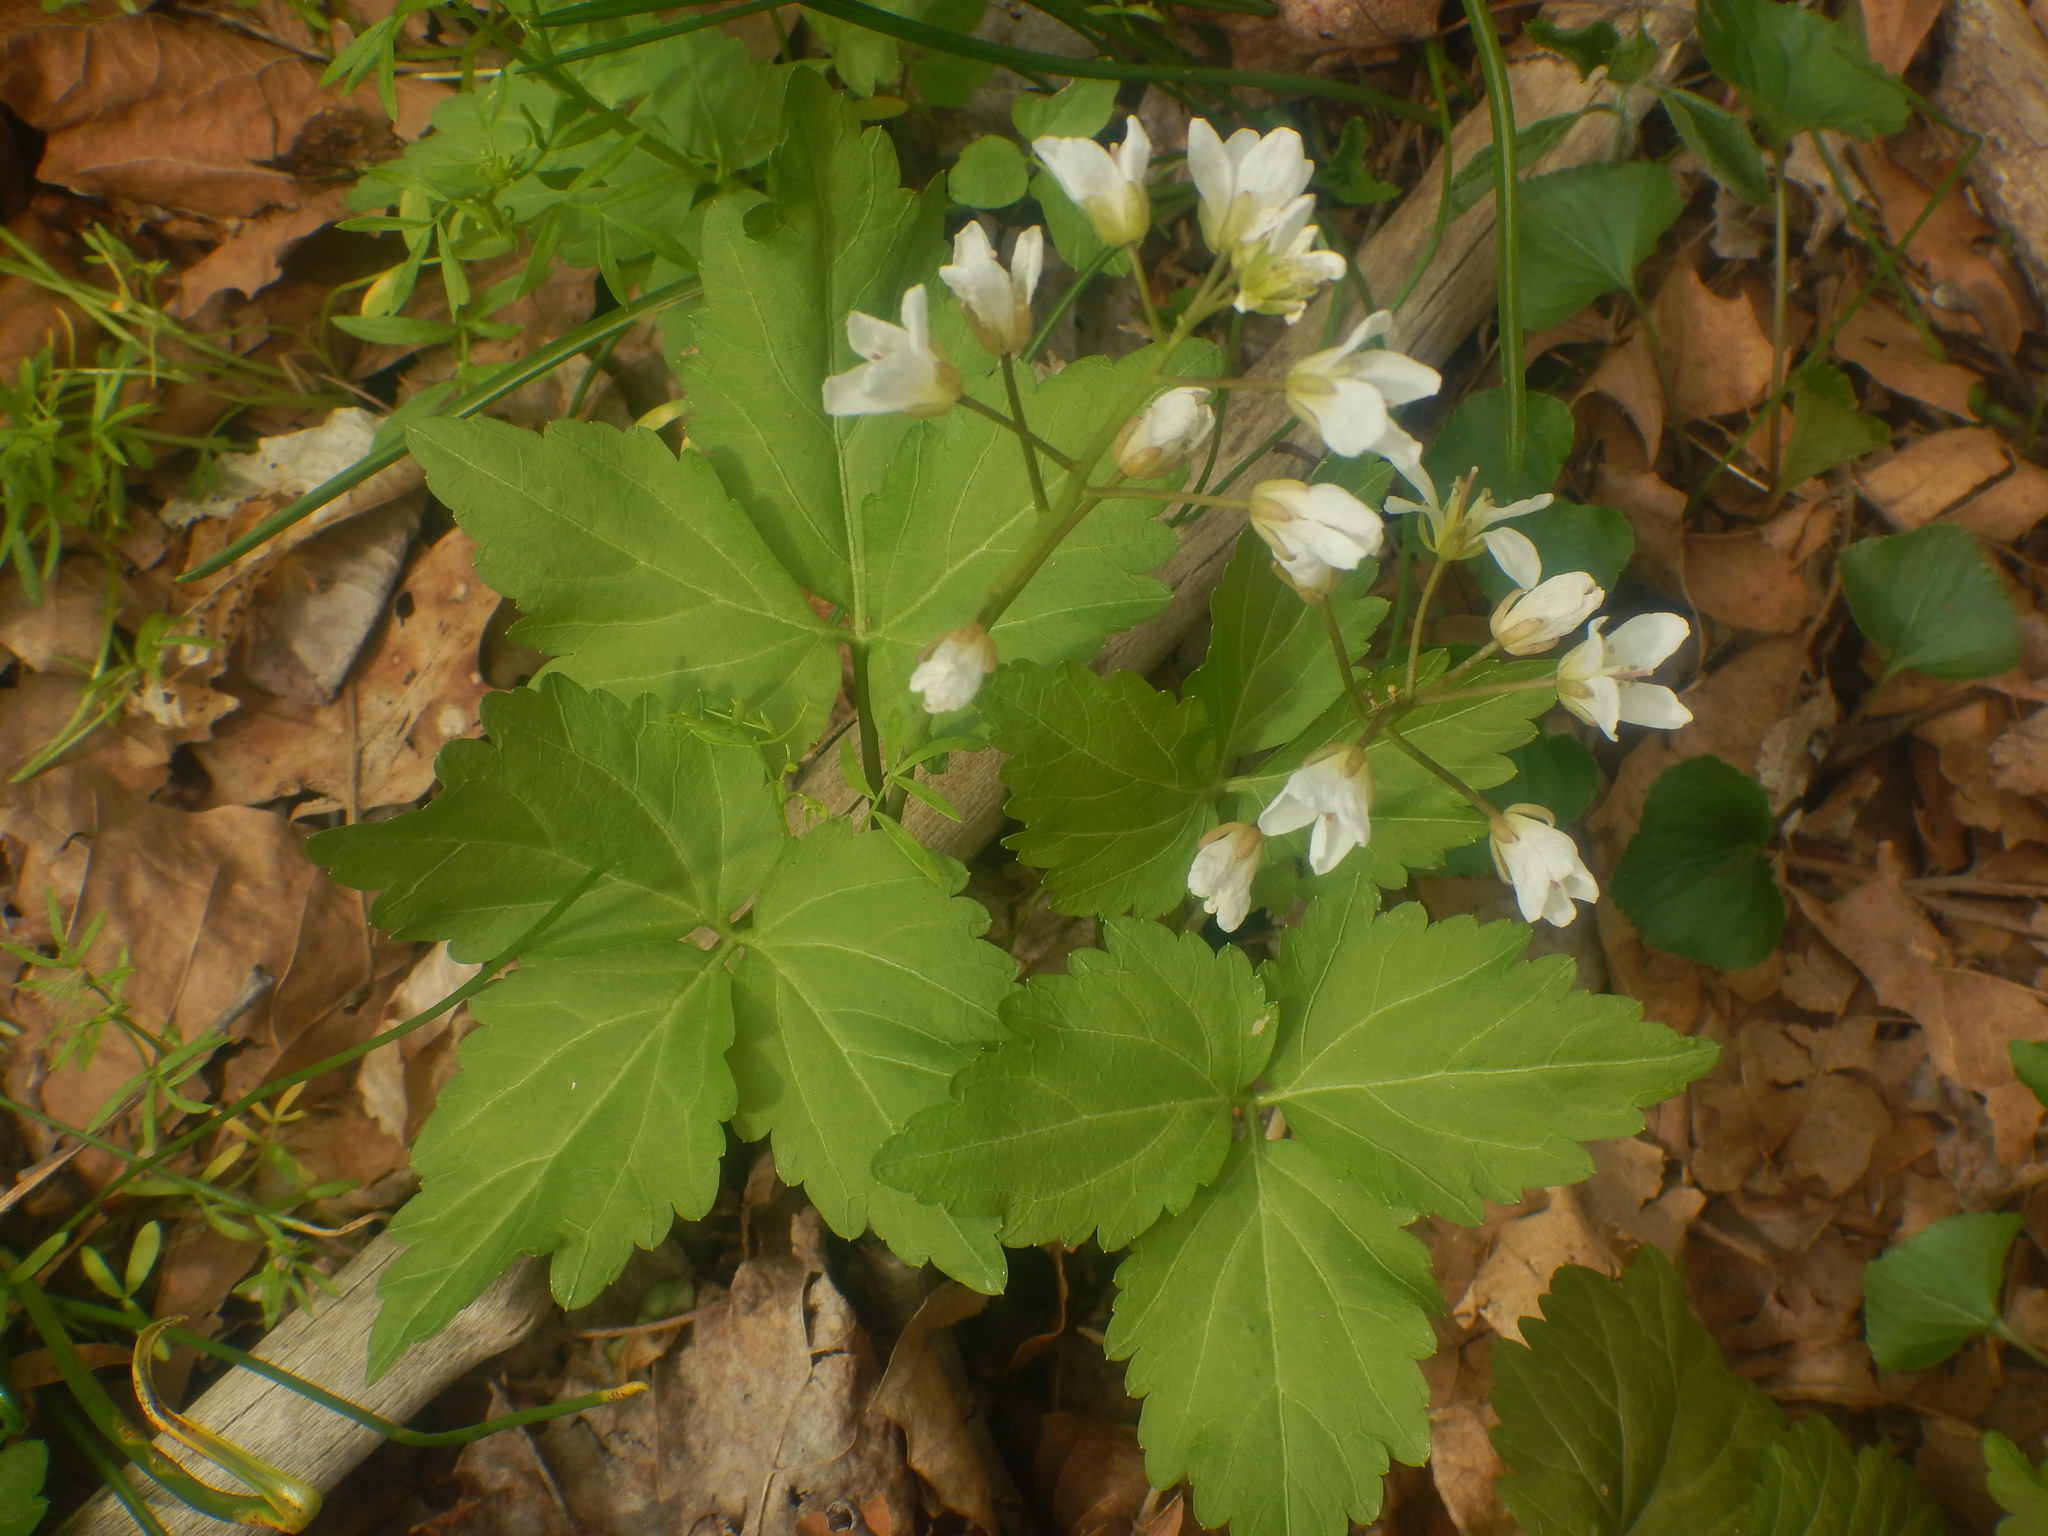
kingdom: Plantae
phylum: Tracheophyta
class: Magnoliopsida
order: Brassicales
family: Brassicaceae
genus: Cardamine
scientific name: Cardamine diphylla
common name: Broad-leaved toothwort
